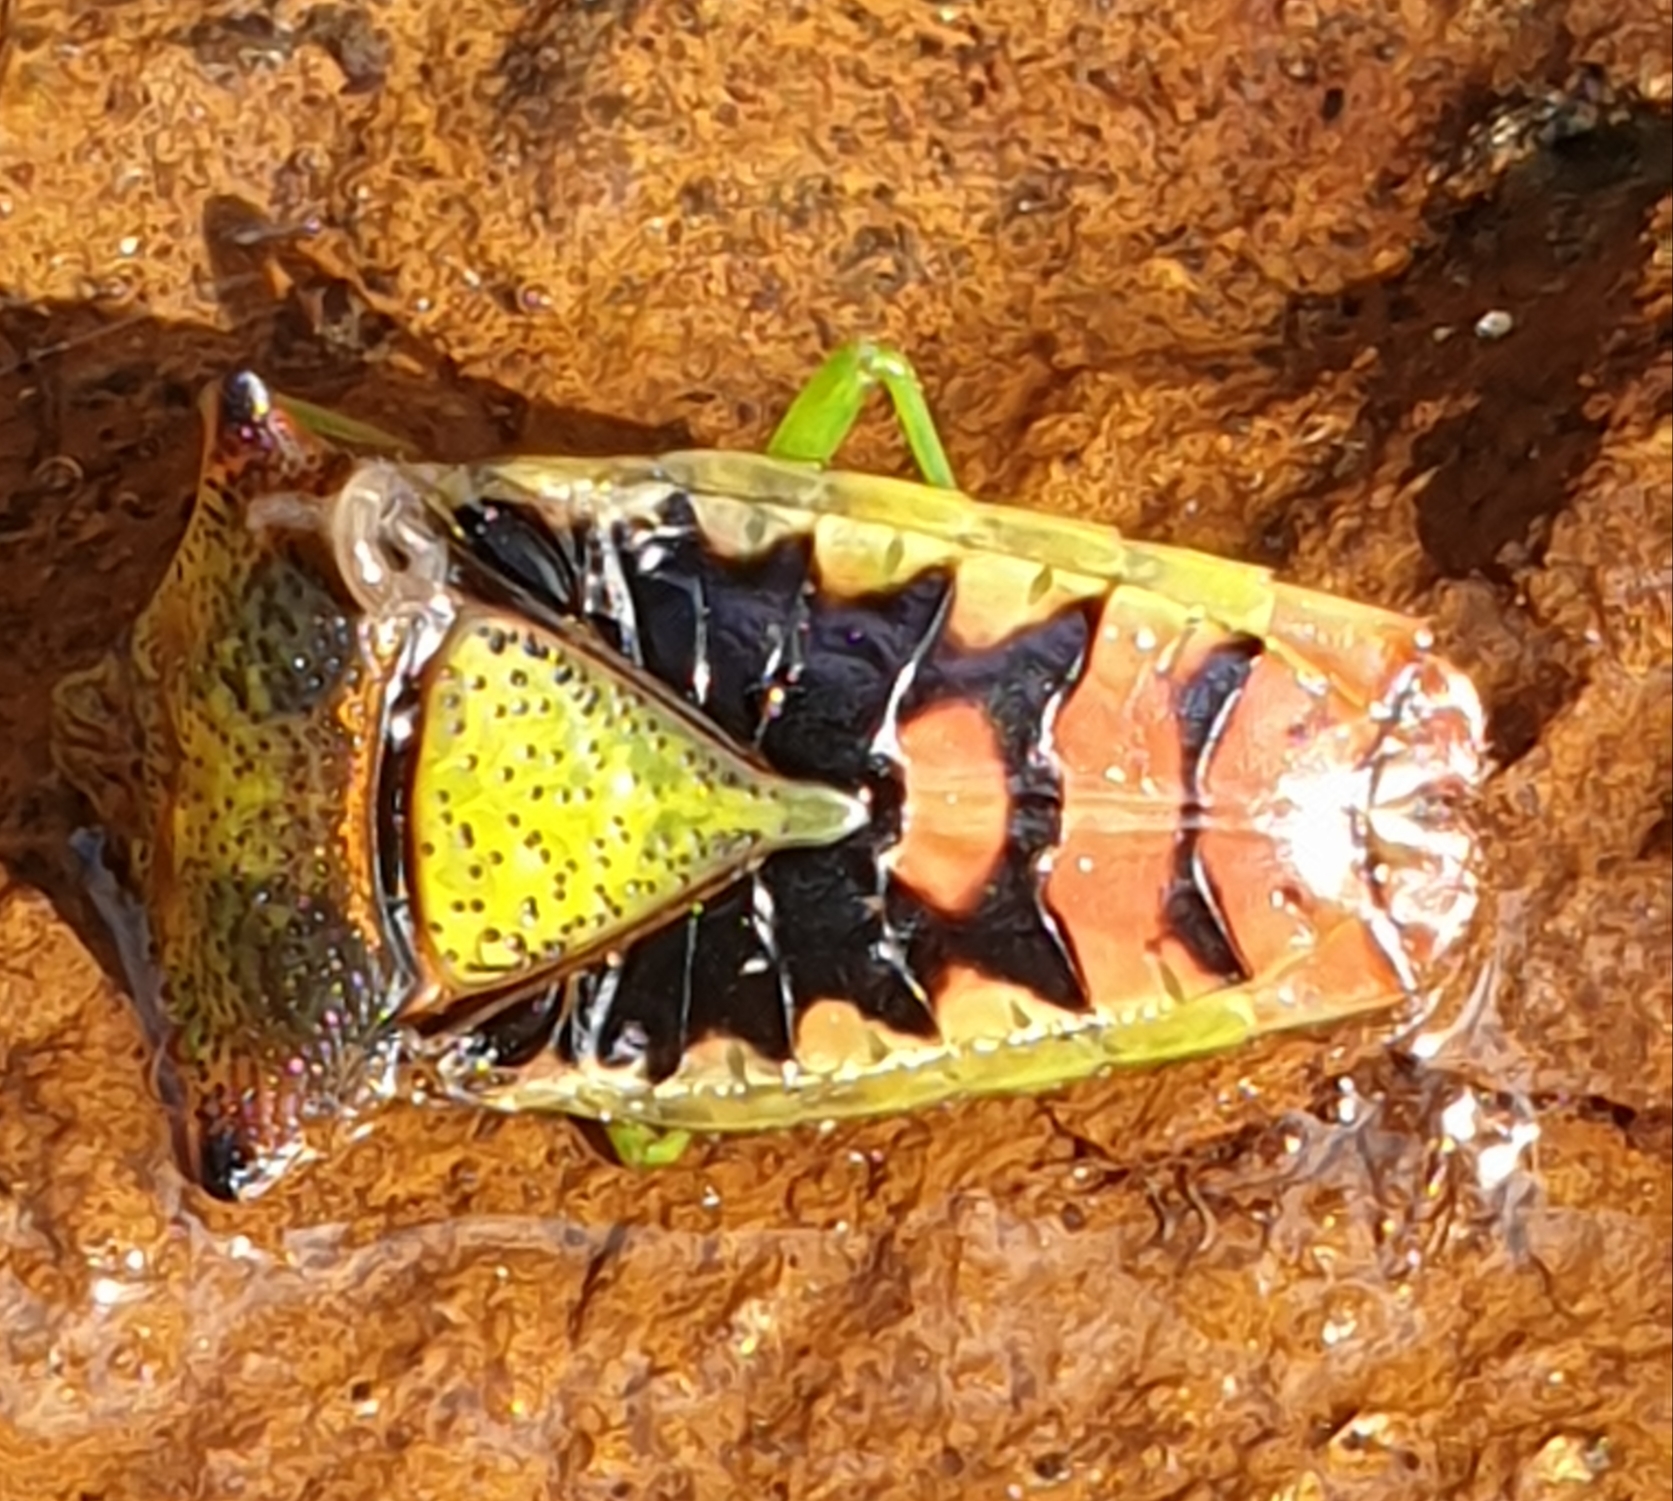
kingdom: Animalia
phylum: Arthropoda
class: Insecta
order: Hemiptera
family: Acanthosomatidae
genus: Acanthosoma
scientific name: Acanthosoma haemorrhoidale
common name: Hawthorn shieldbug
